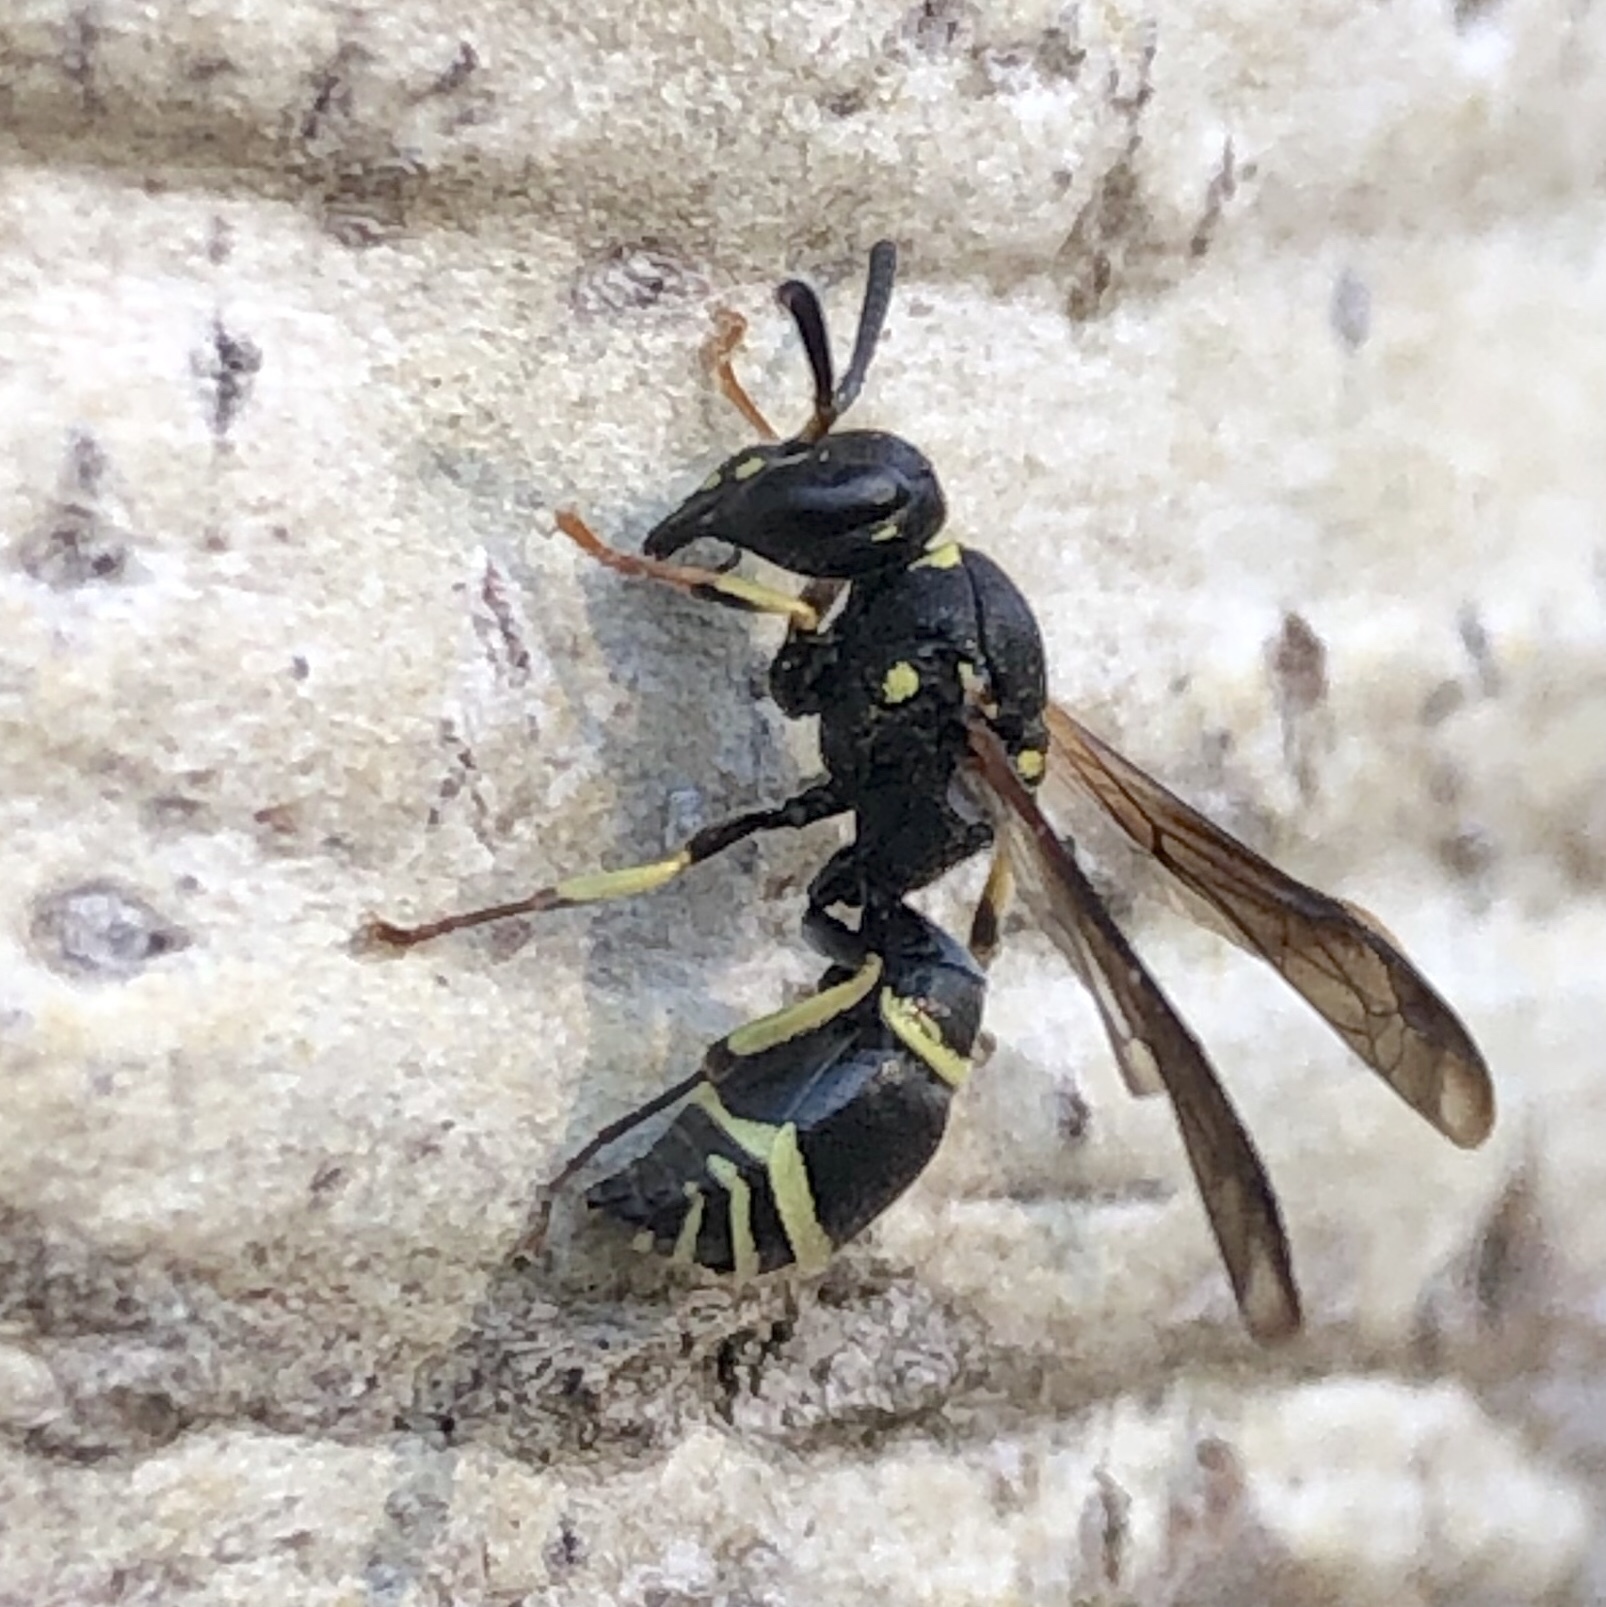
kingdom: Animalia
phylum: Arthropoda
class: Insecta
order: Hymenoptera
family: Vespidae
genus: Ancistrocerus
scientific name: Ancistrocerus
